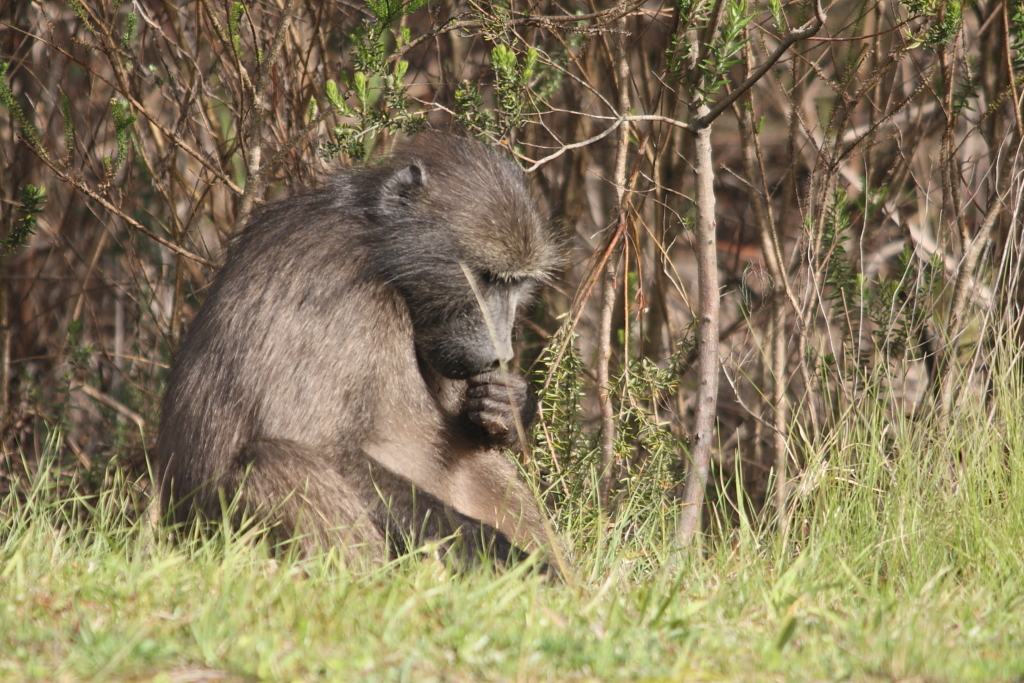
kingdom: Animalia
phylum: Chordata
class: Mammalia
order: Primates
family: Cercopithecidae
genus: Papio
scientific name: Papio ursinus
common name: Chacma baboon
